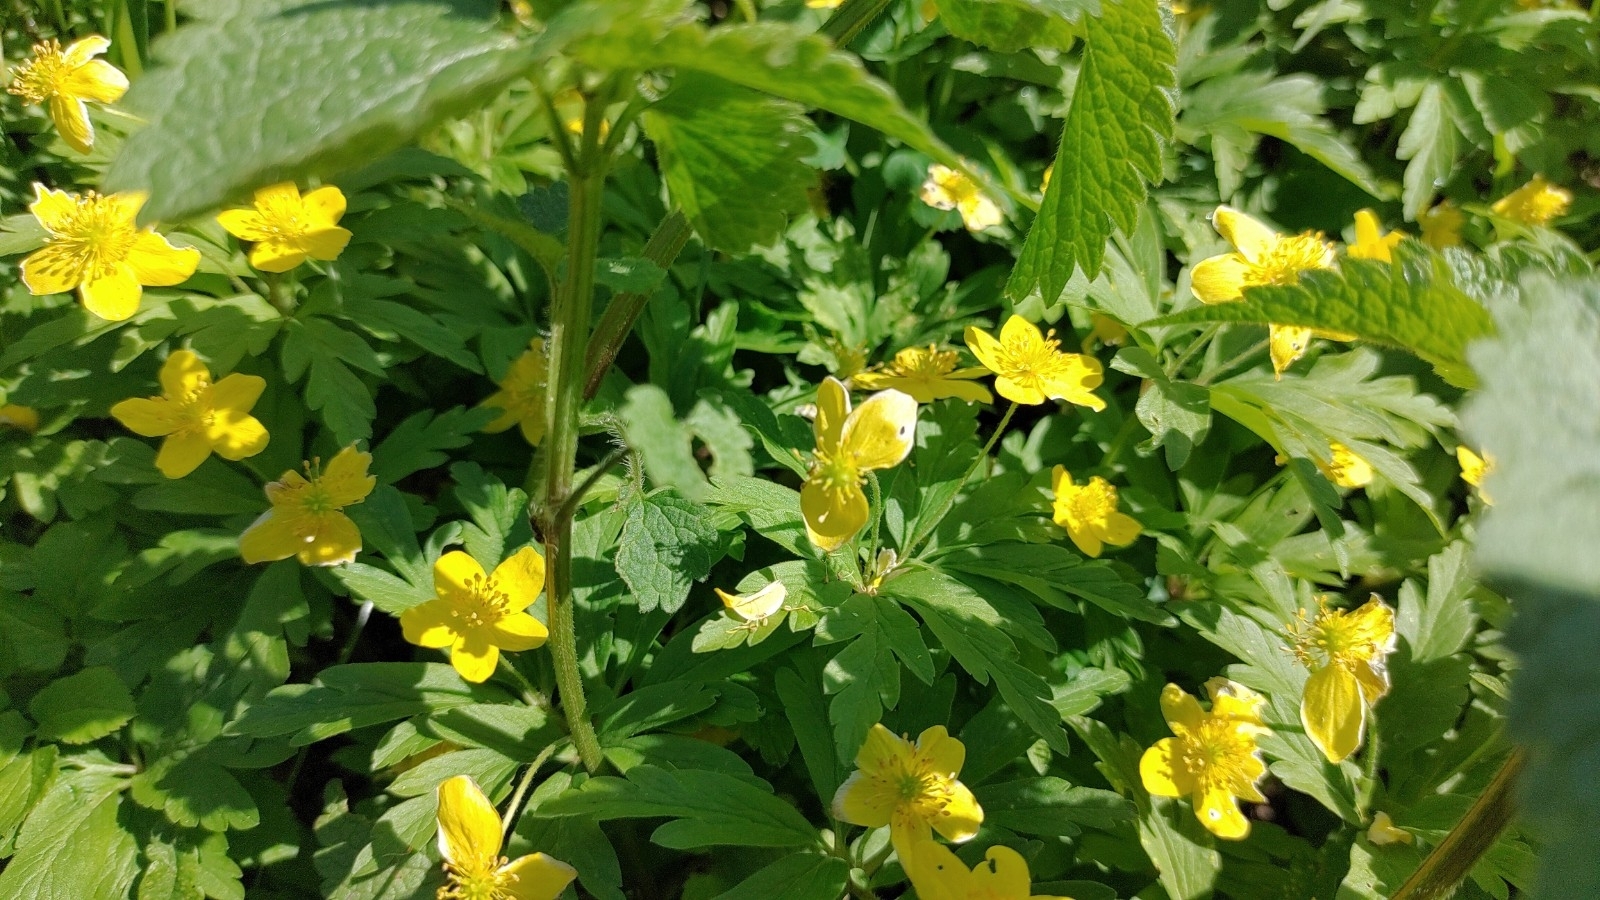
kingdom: Plantae
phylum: Tracheophyta
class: Magnoliopsida
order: Ranunculales
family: Ranunculaceae
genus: Anemone
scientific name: Anemone ranunculoides
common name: Yellow anemone
